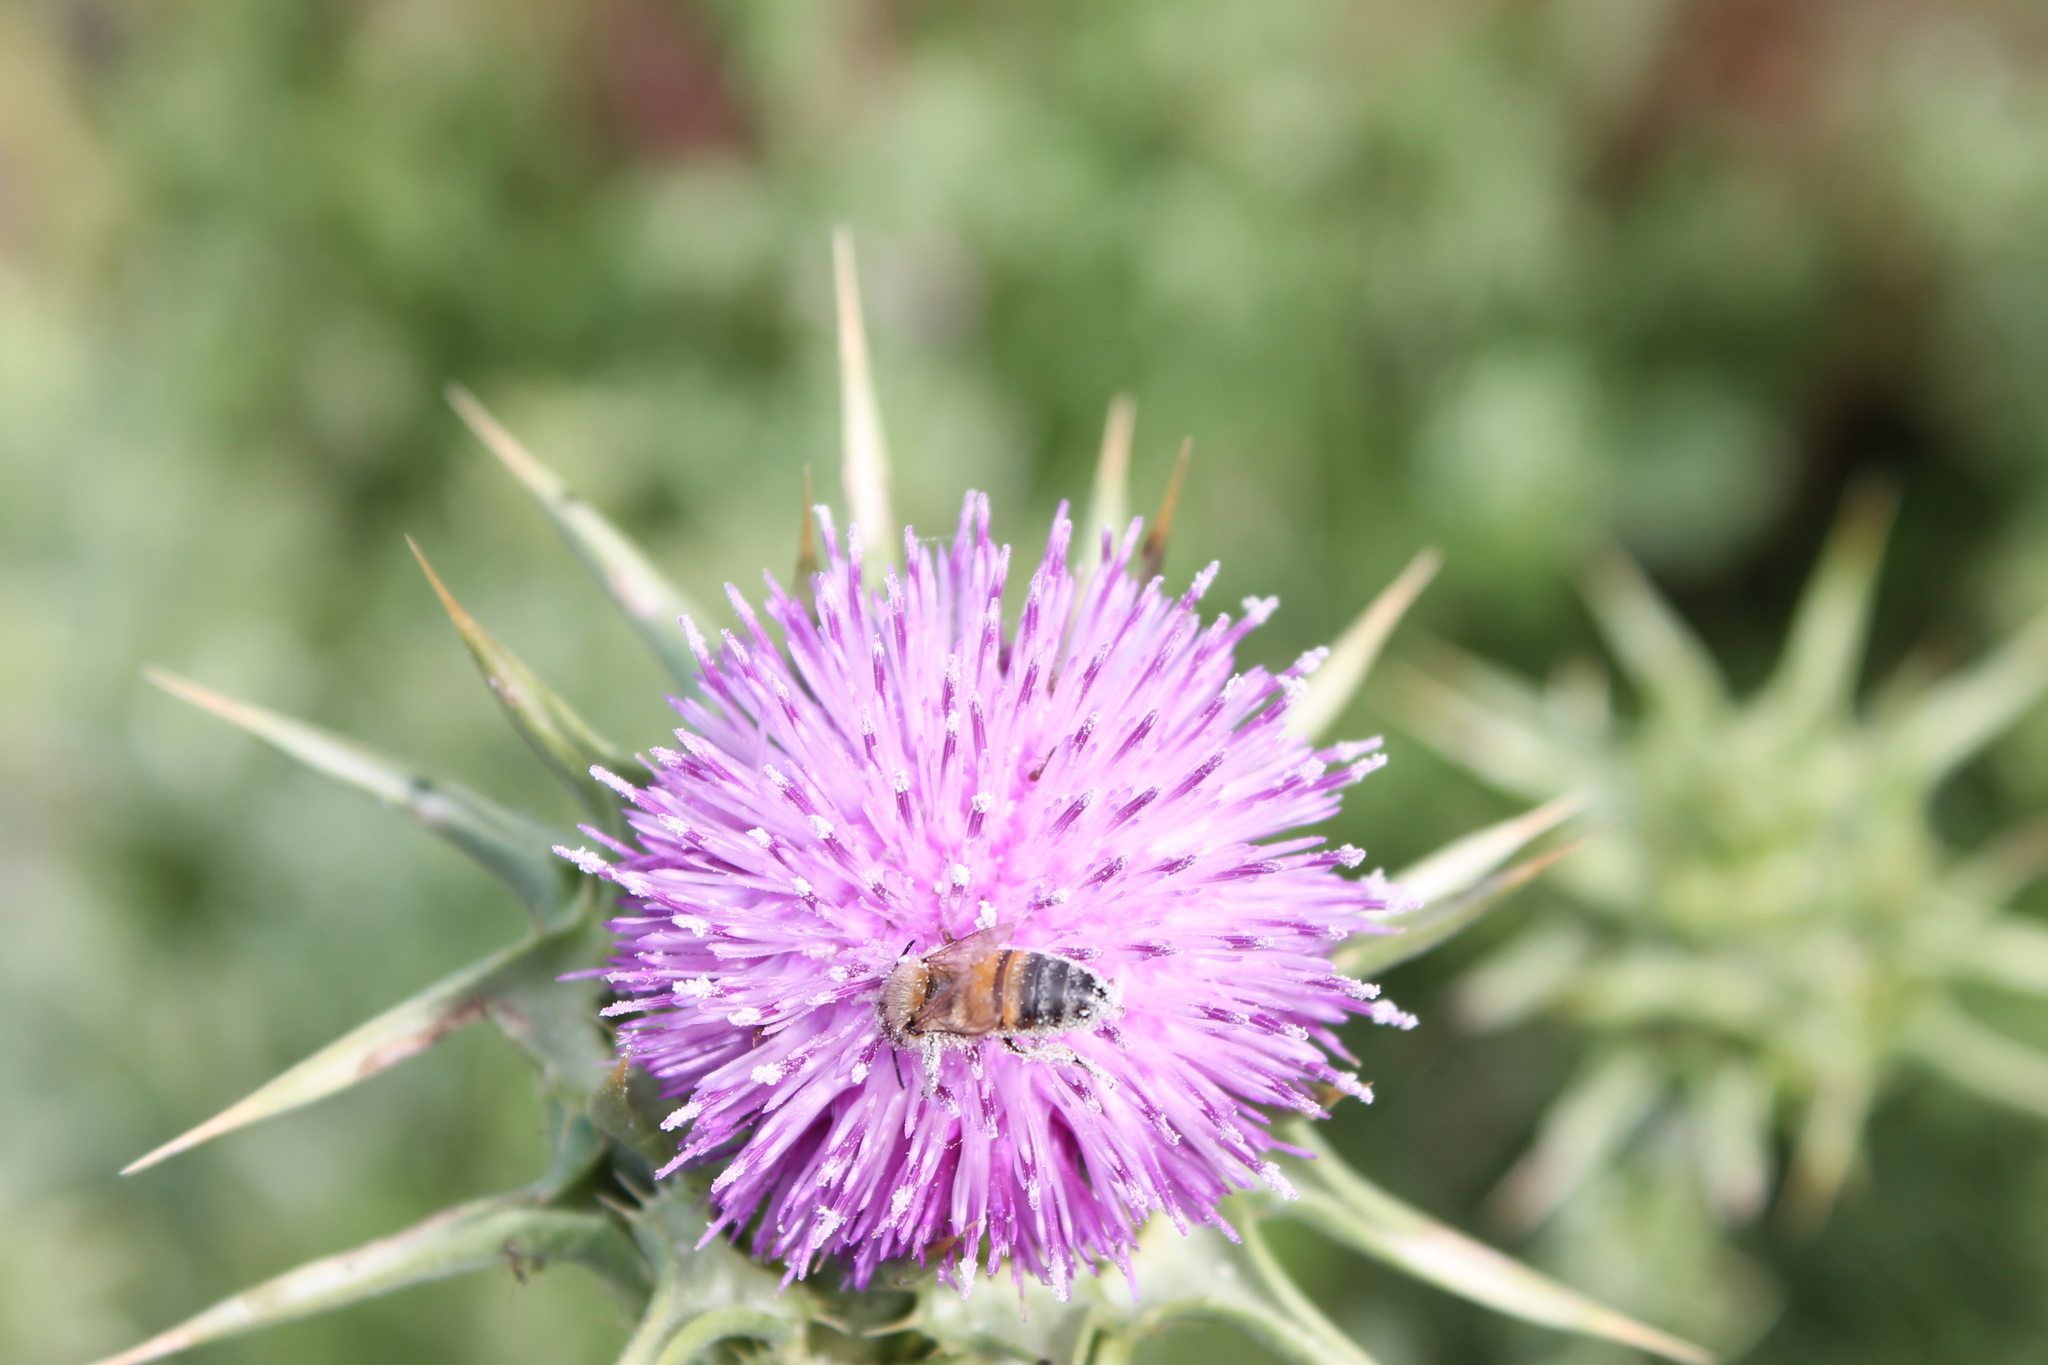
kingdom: Plantae
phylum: Tracheophyta
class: Magnoliopsida
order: Asterales
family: Asteraceae
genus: Silybum
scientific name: Silybum marianum
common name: Milk thistle
